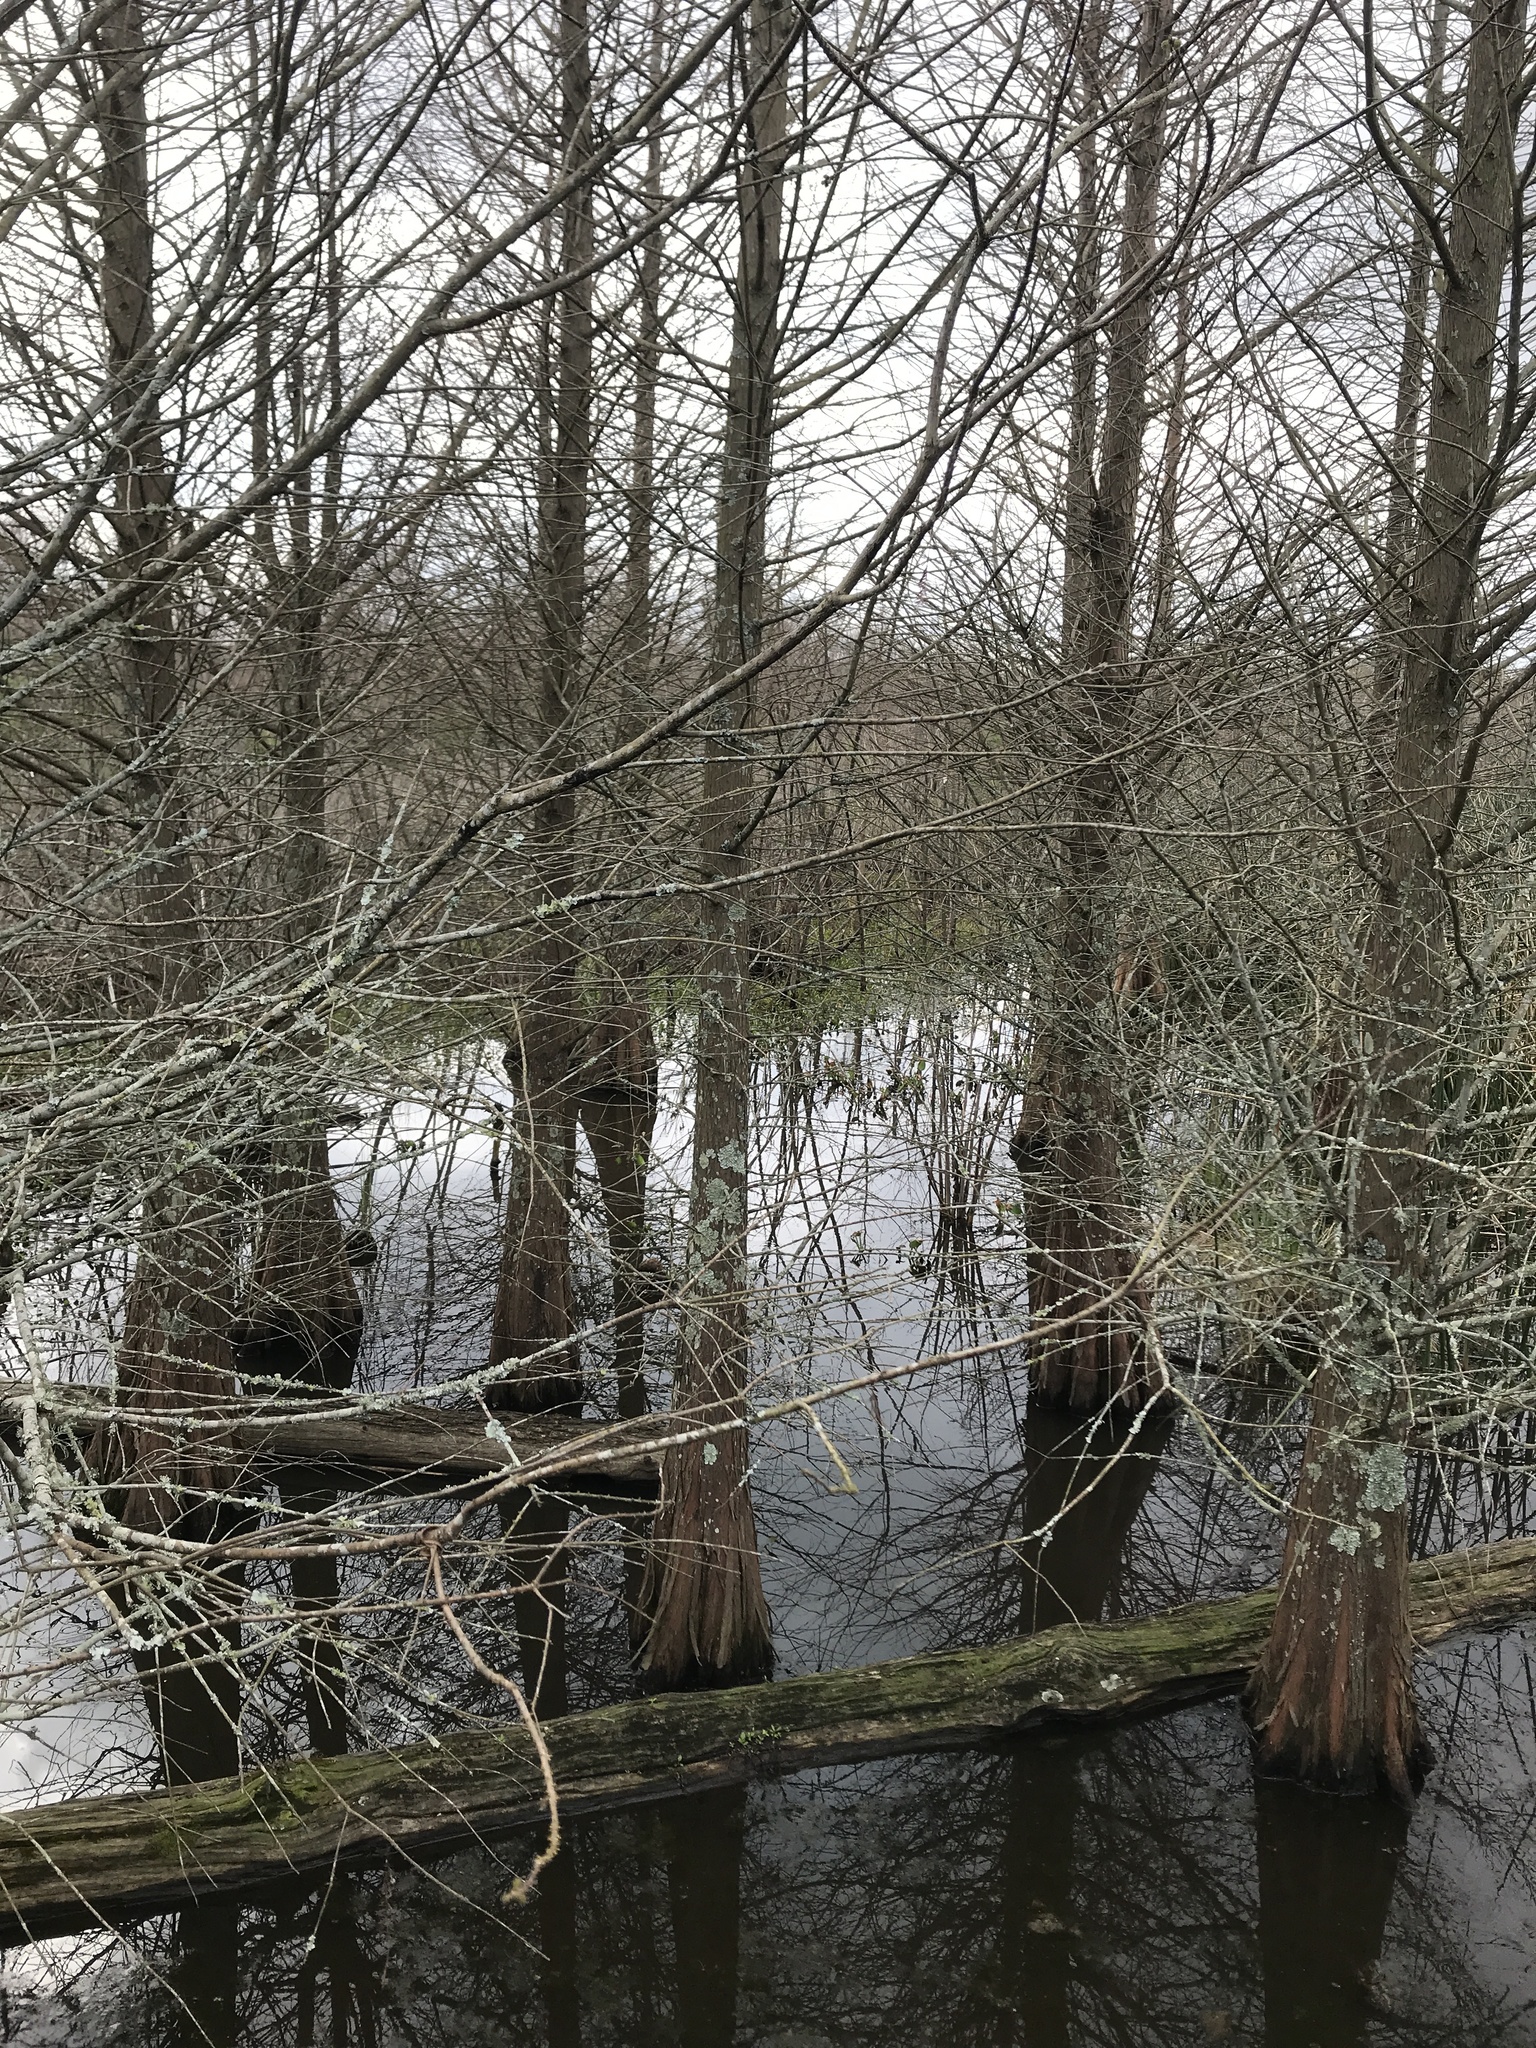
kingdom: Plantae
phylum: Tracheophyta
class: Pinopsida
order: Pinales
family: Cupressaceae
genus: Taxodium
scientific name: Taxodium distichum
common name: Bald cypress
